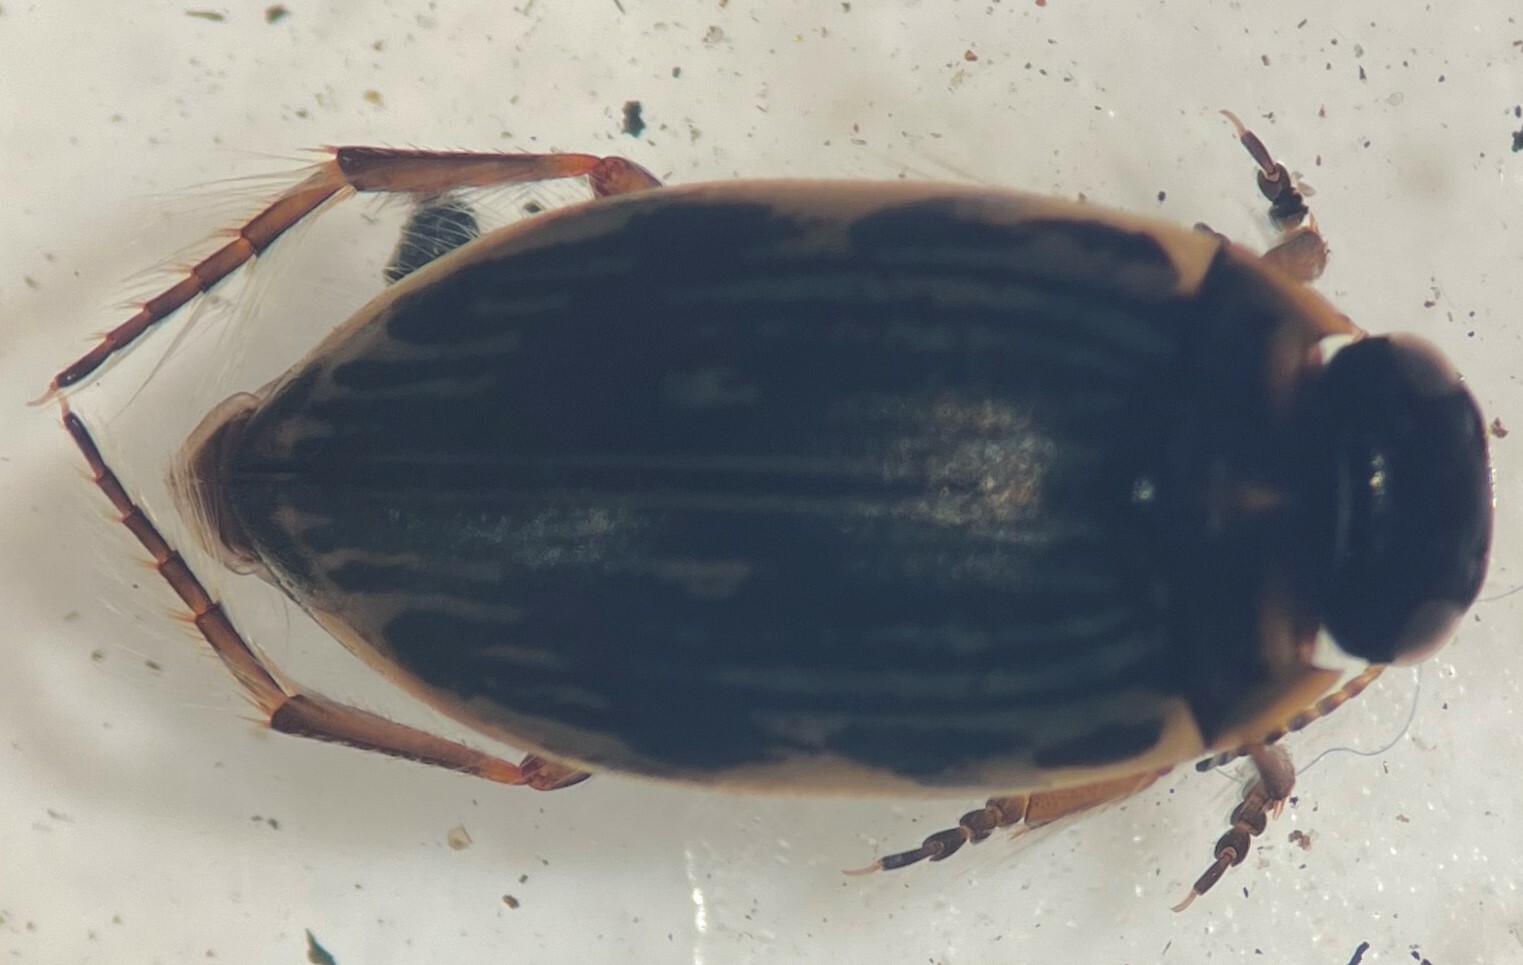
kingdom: Animalia
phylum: Arthropoda
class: Insecta
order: Coleoptera
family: Dytiscidae
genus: Boreonectes
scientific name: Boreonectes griseostriatus
